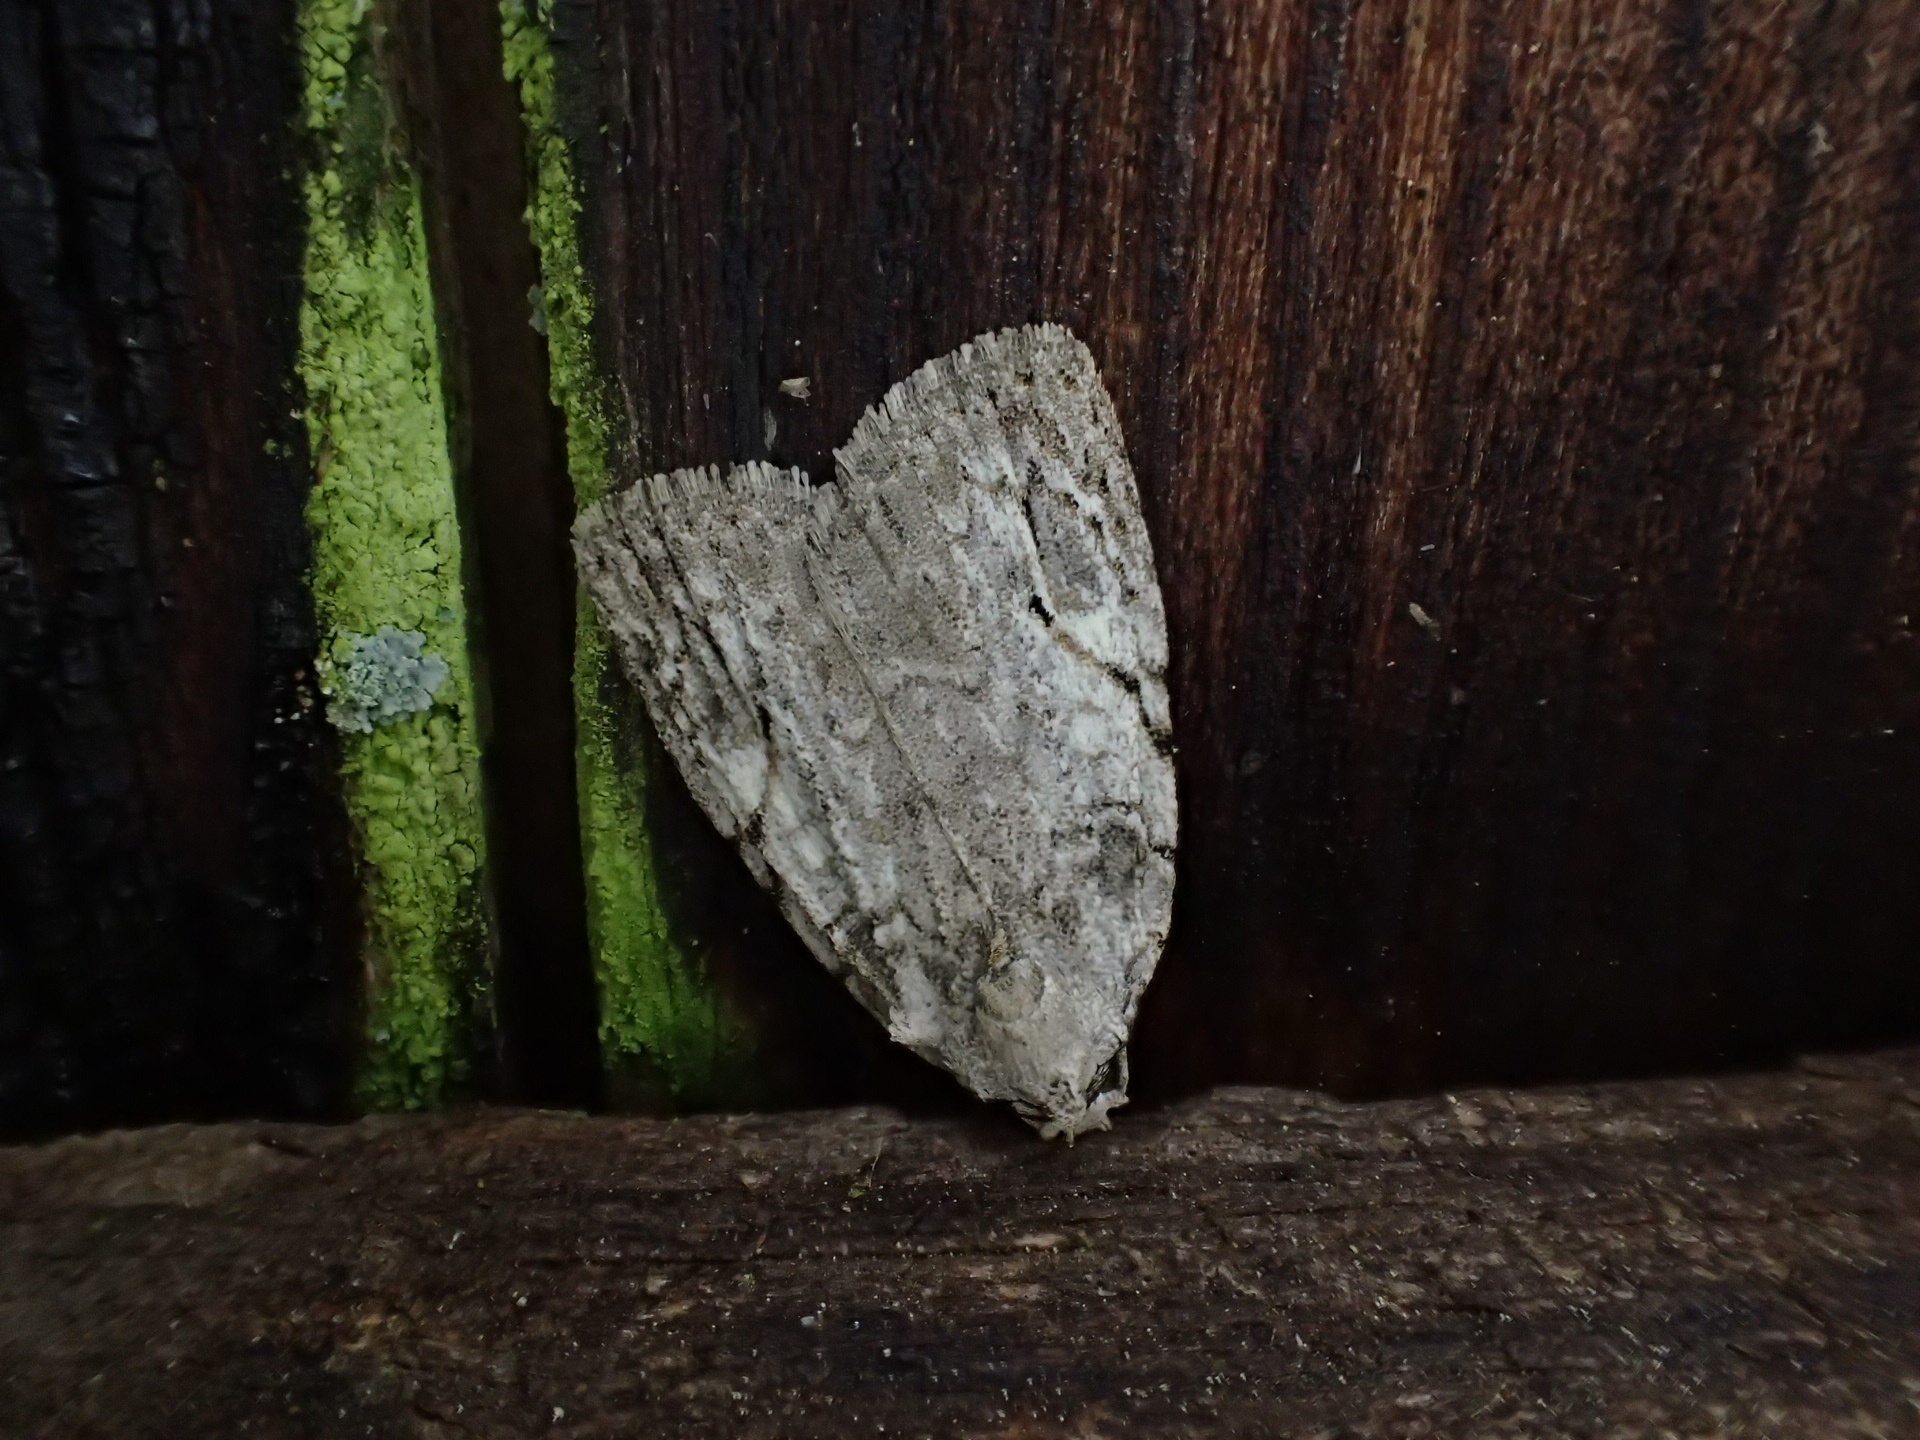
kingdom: Animalia
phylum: Arthropoda
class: Insecta
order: Lepidoptera
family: Noctuidae
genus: Balsa
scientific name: Balsa labecula
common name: White-blotched balsa moth
